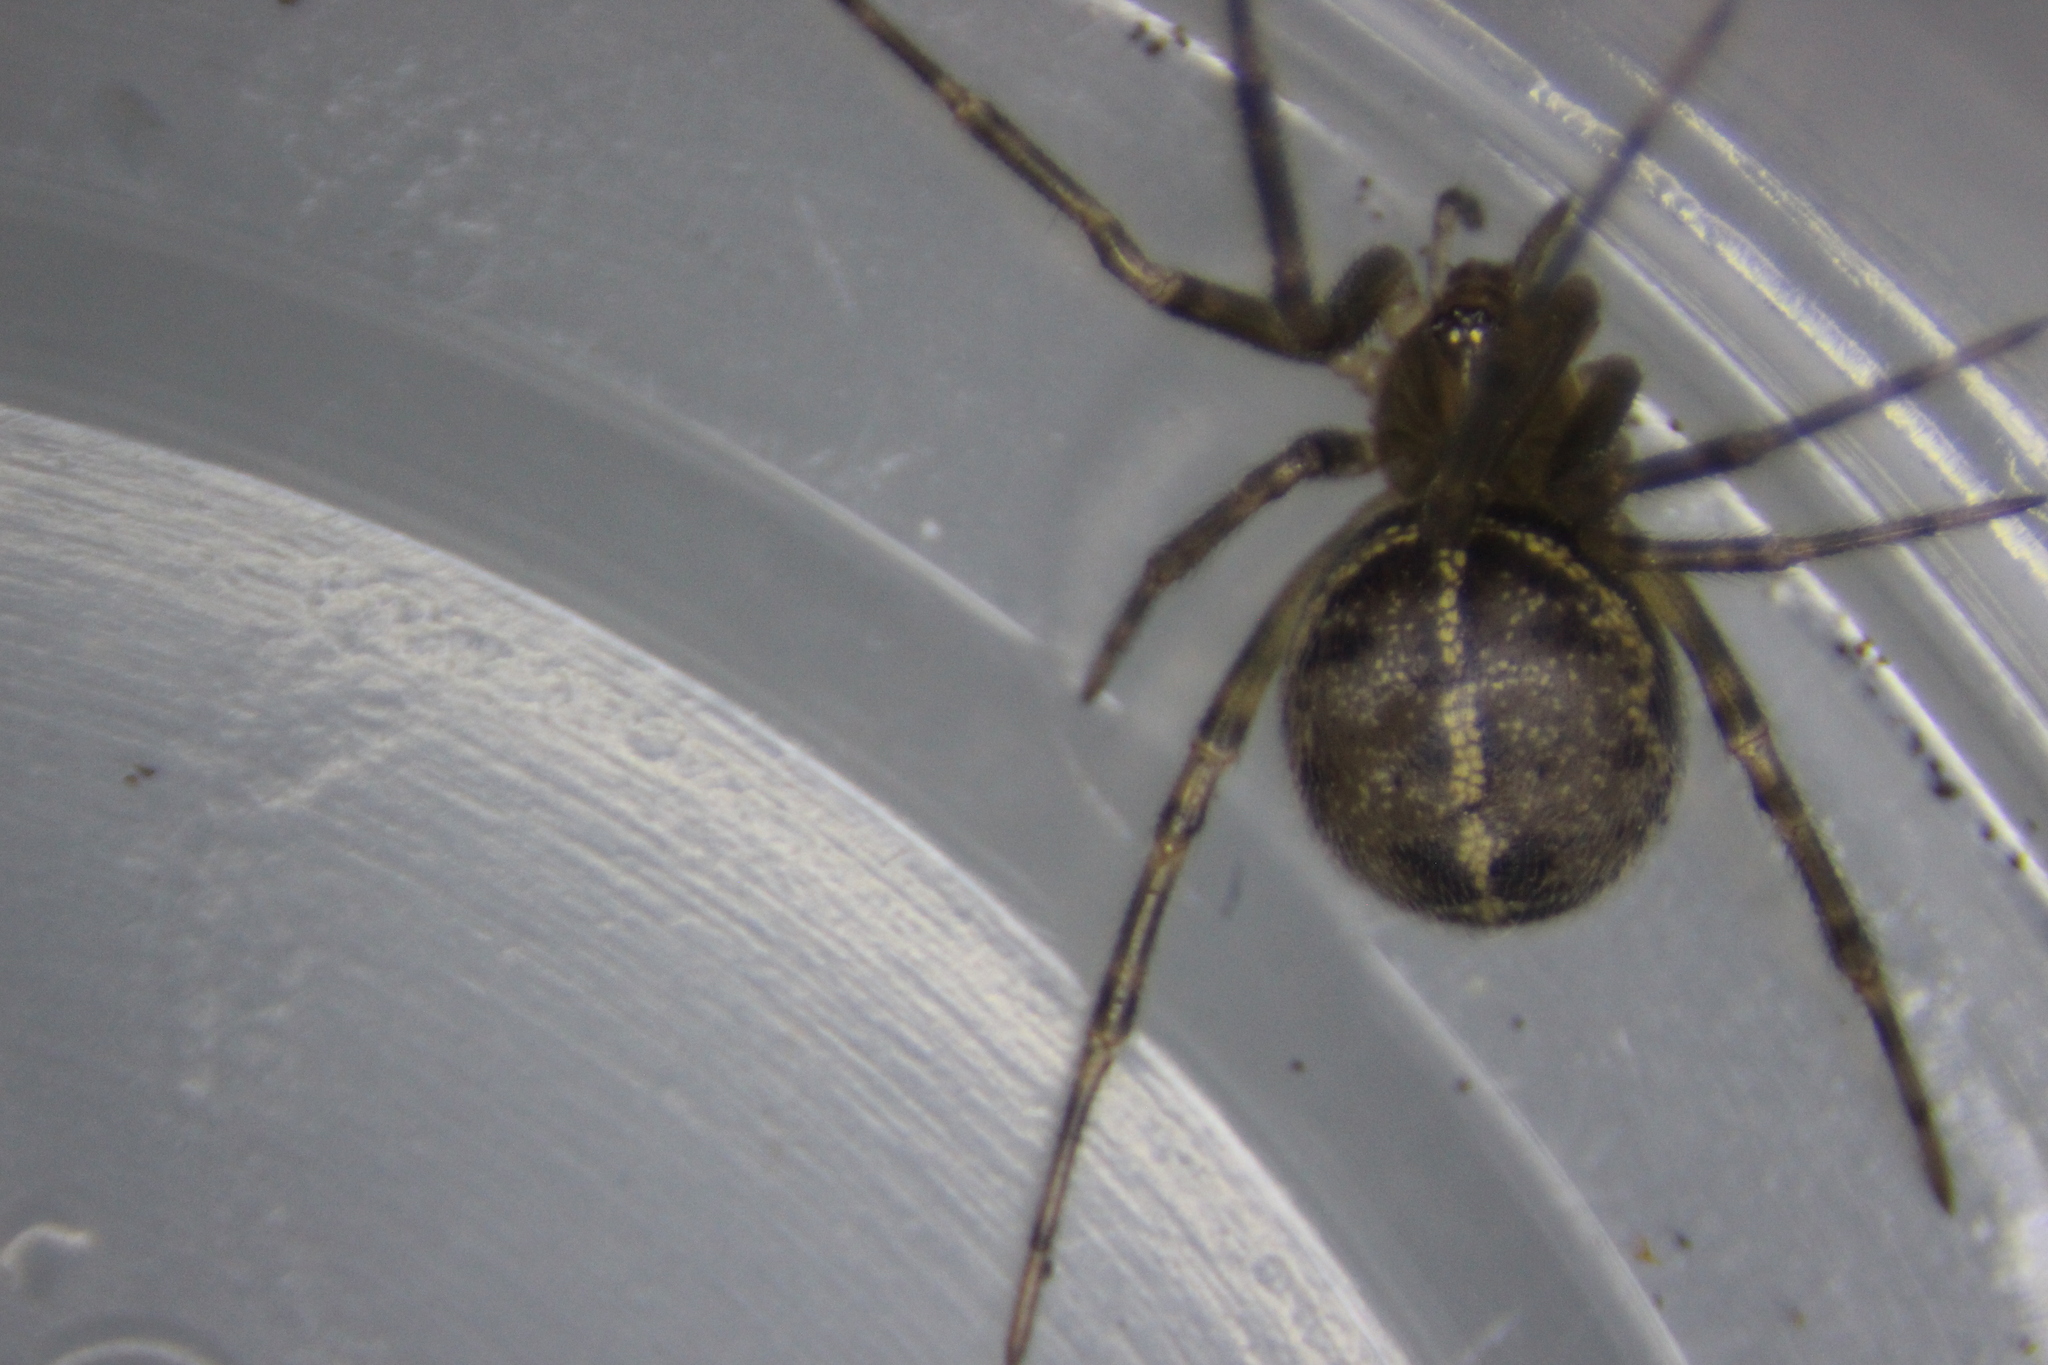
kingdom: Animalia
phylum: Arthropoda
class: Arachnida
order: Araneae
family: Theridiidae
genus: Steatoda
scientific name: Steatoda borealis
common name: Boreal combfoot
